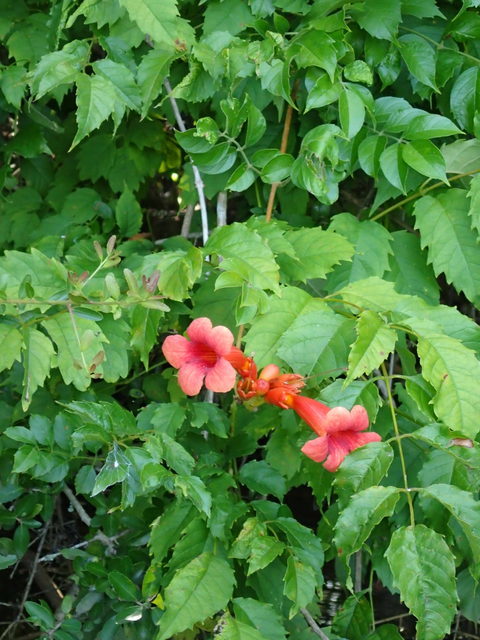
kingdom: Plantae
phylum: Tracheophyta
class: Magnoliopsida
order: Lamiales
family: Bignoniaceae
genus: Campsis
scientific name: Campsis radicans
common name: Trumpet-creeper
